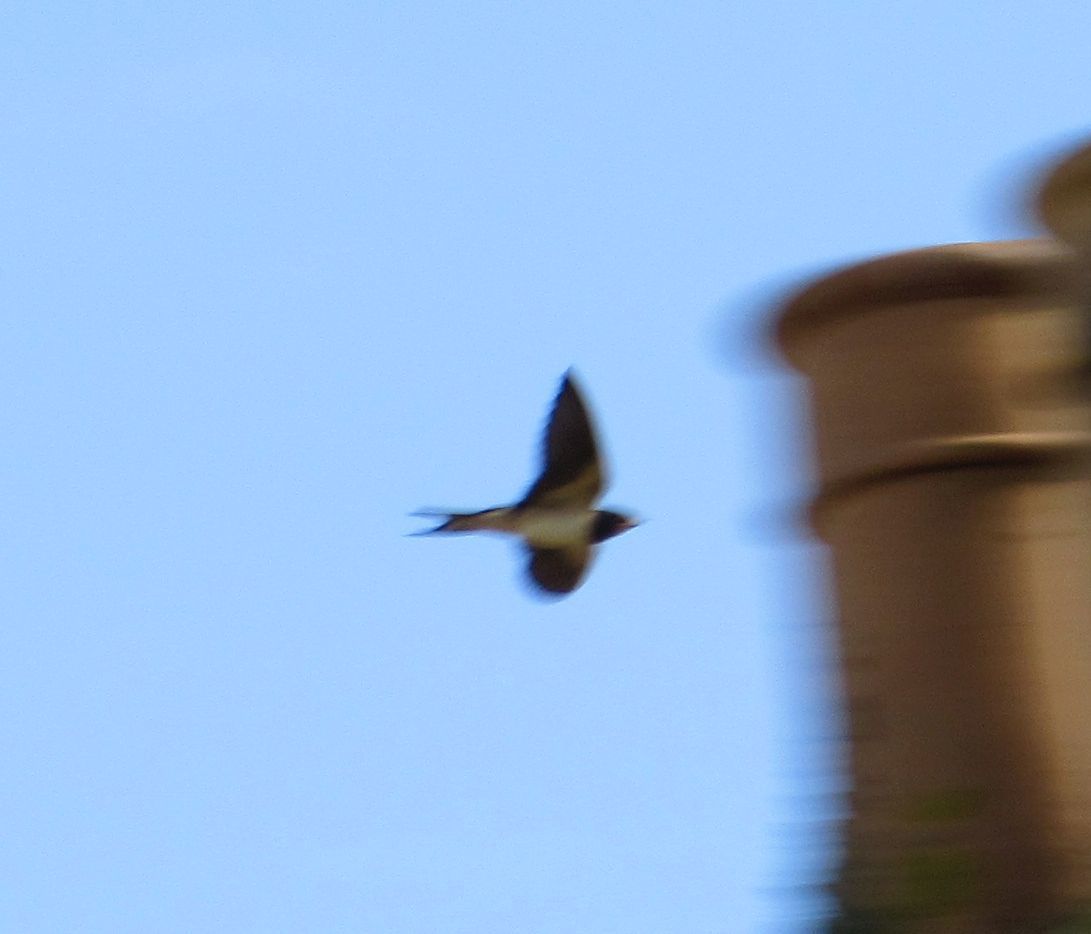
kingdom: Animalia
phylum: Chordata
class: Aves
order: Passeriformes
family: Hirundinidae
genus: Hirundo
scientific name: Hirundo rustica
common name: Barn swallow
